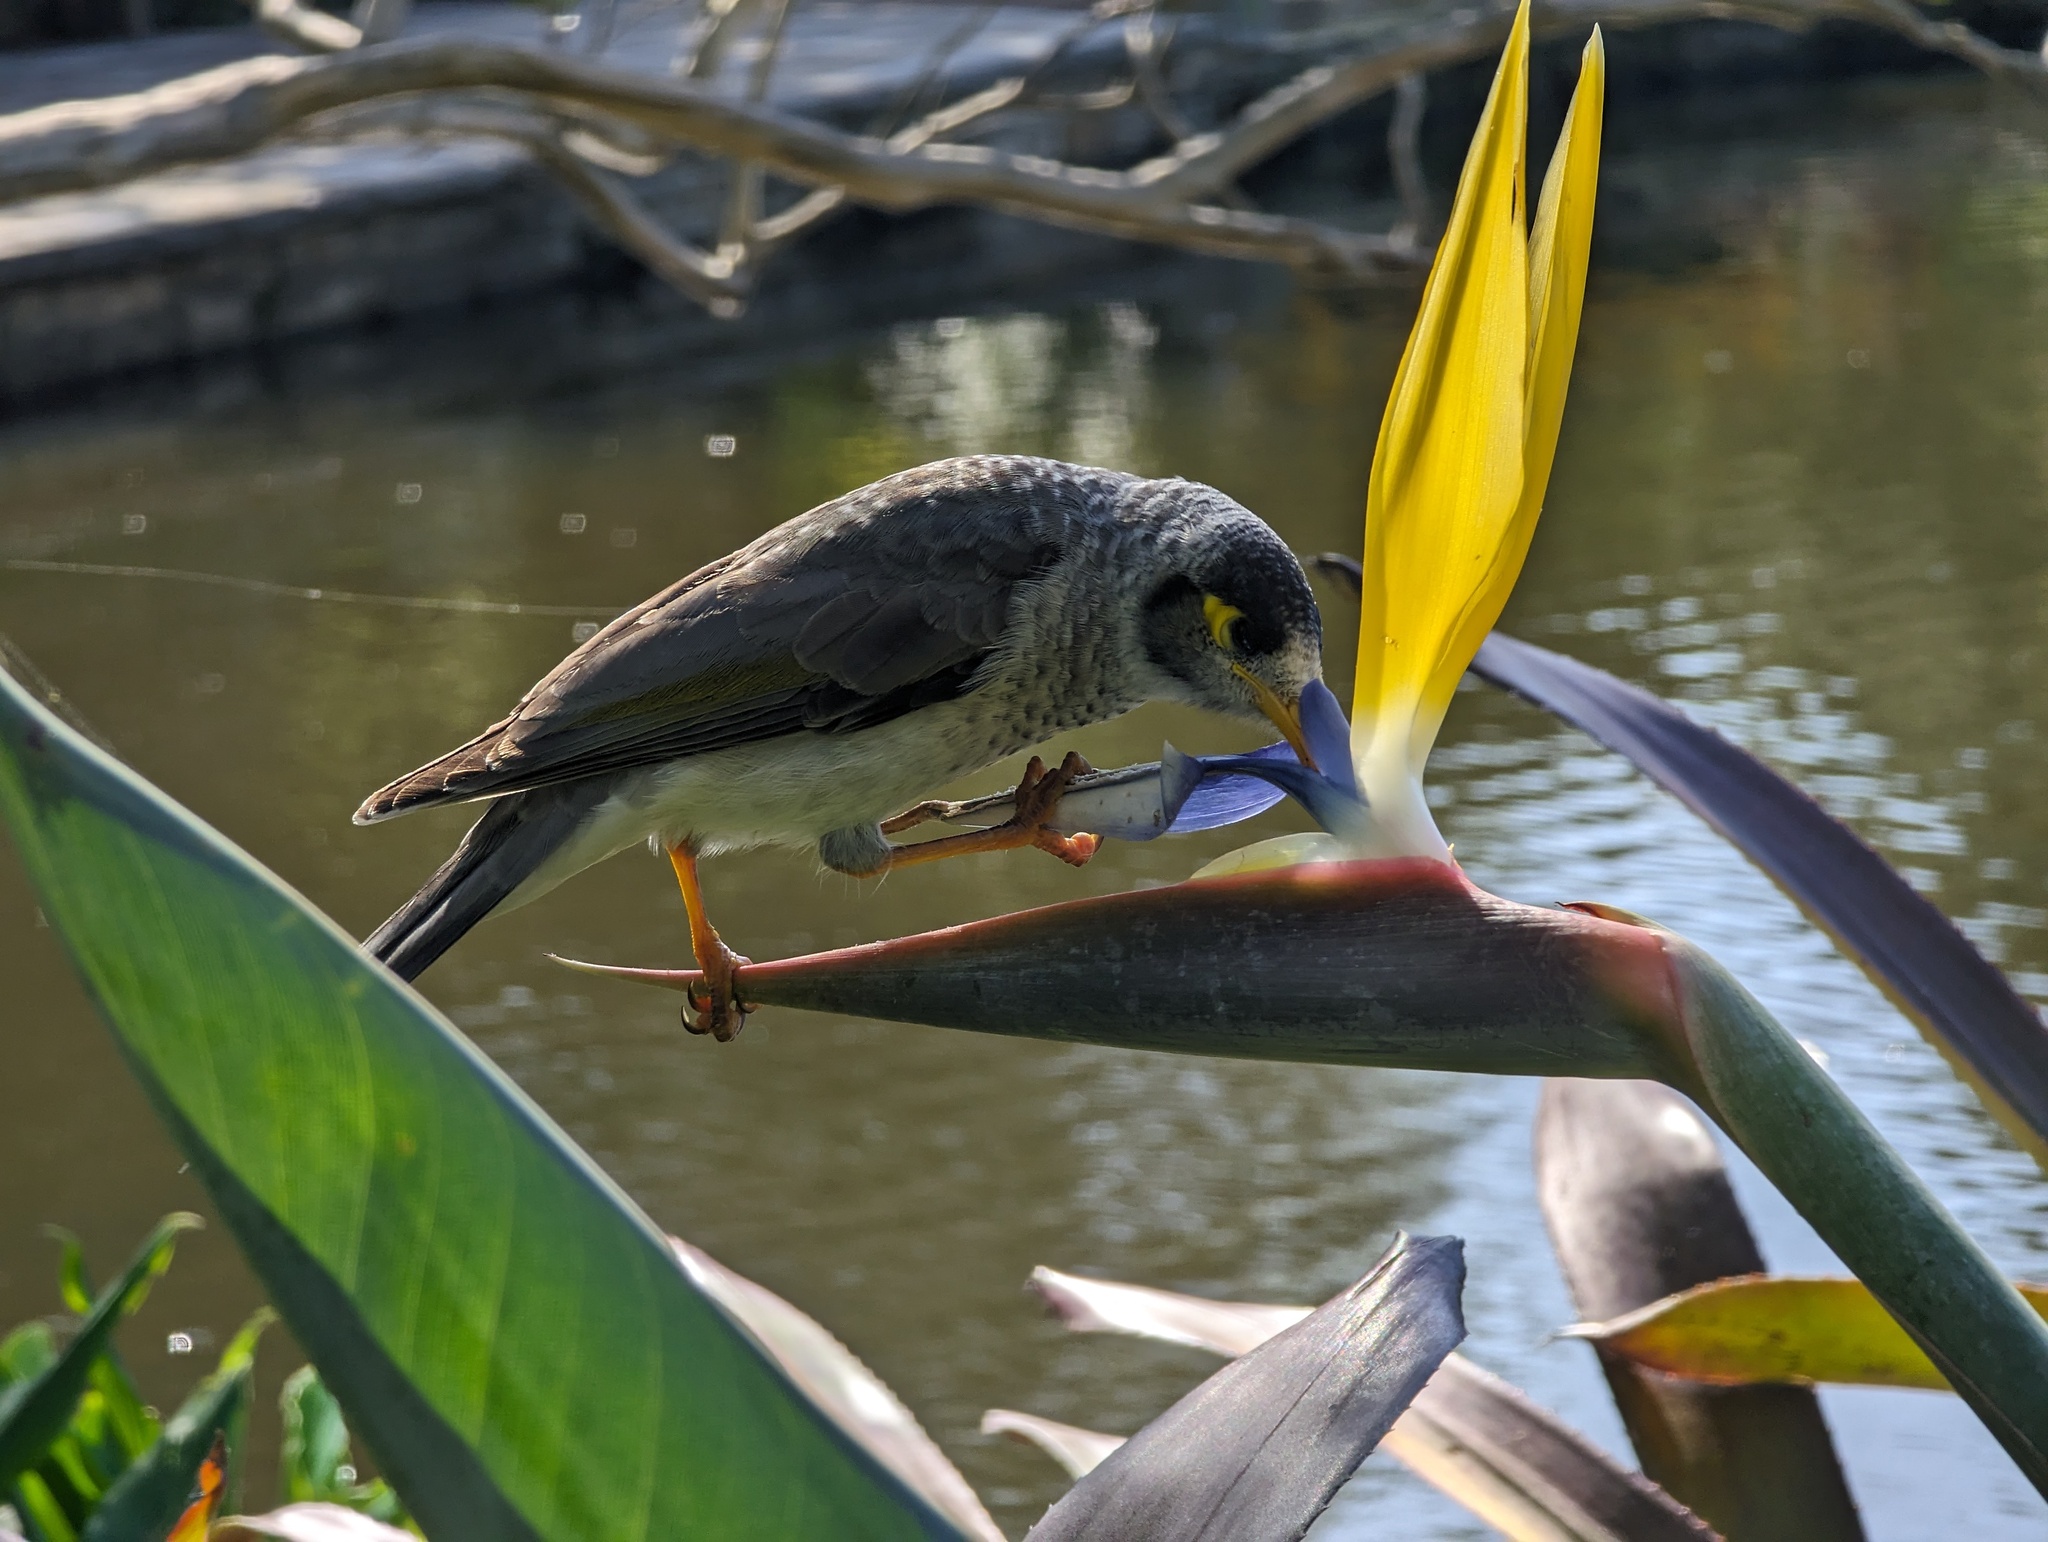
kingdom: Animalia
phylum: Chordata
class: Aves
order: Passeriformes
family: Meliphagidae
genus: Manorina
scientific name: Manorina melanocephala
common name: Noisy miner
